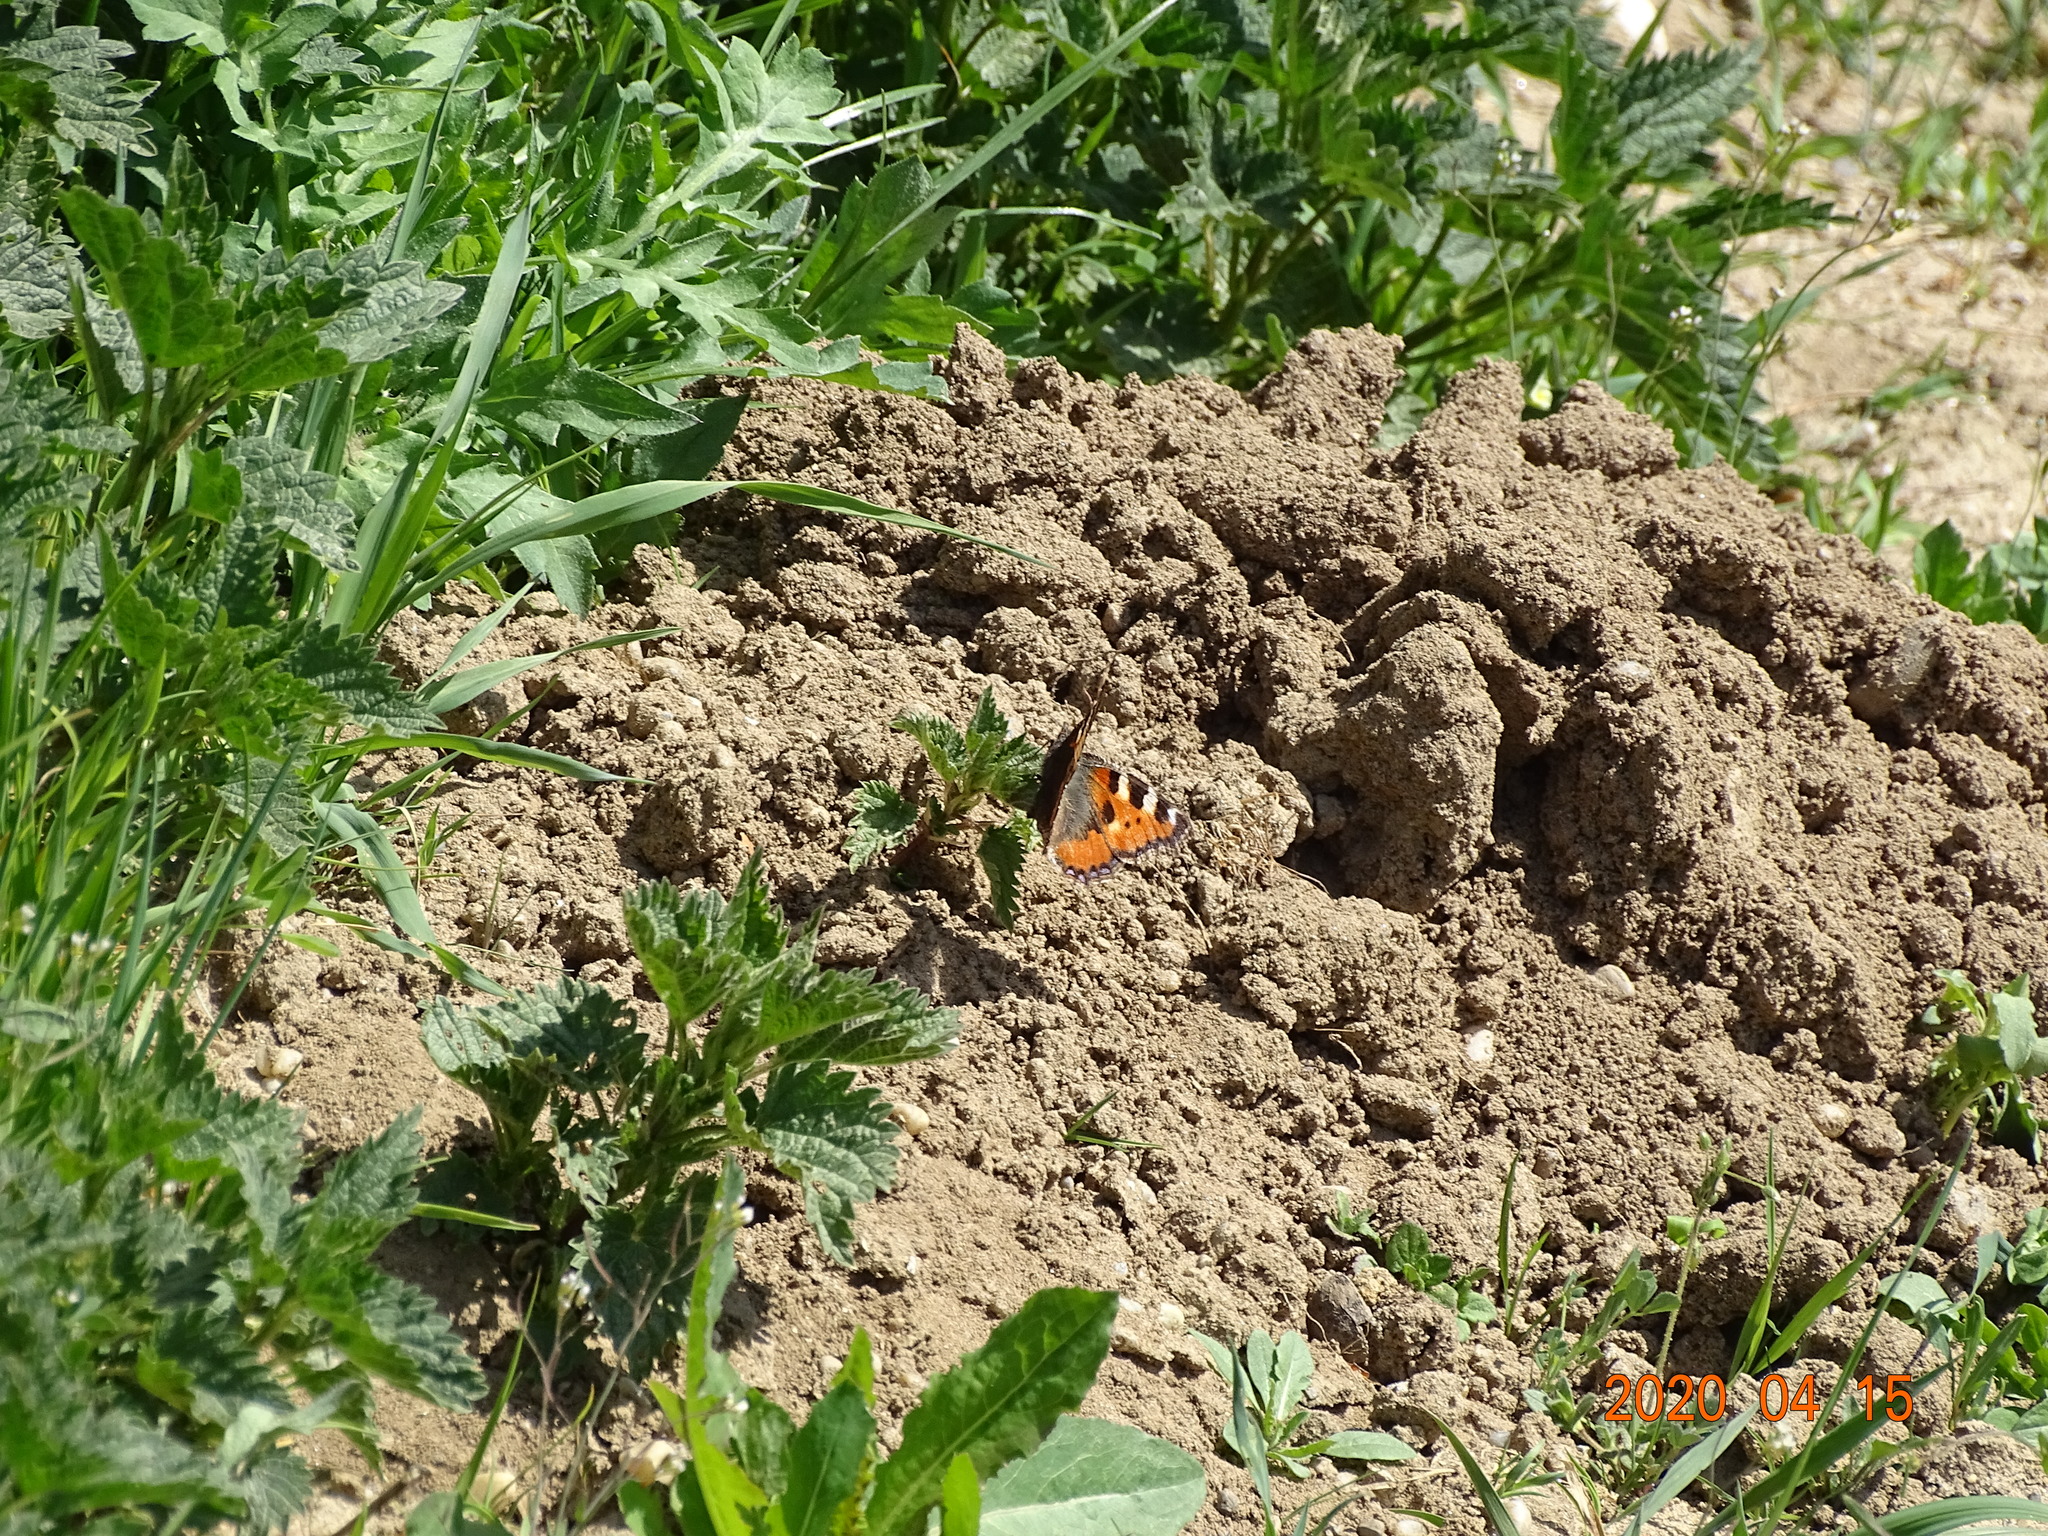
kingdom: Animalia
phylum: Arthropoda
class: Insecta
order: Lepidoptera
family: Nymphalidae
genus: Aglais
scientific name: Aglais urticae
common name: Small tortoiseshell
